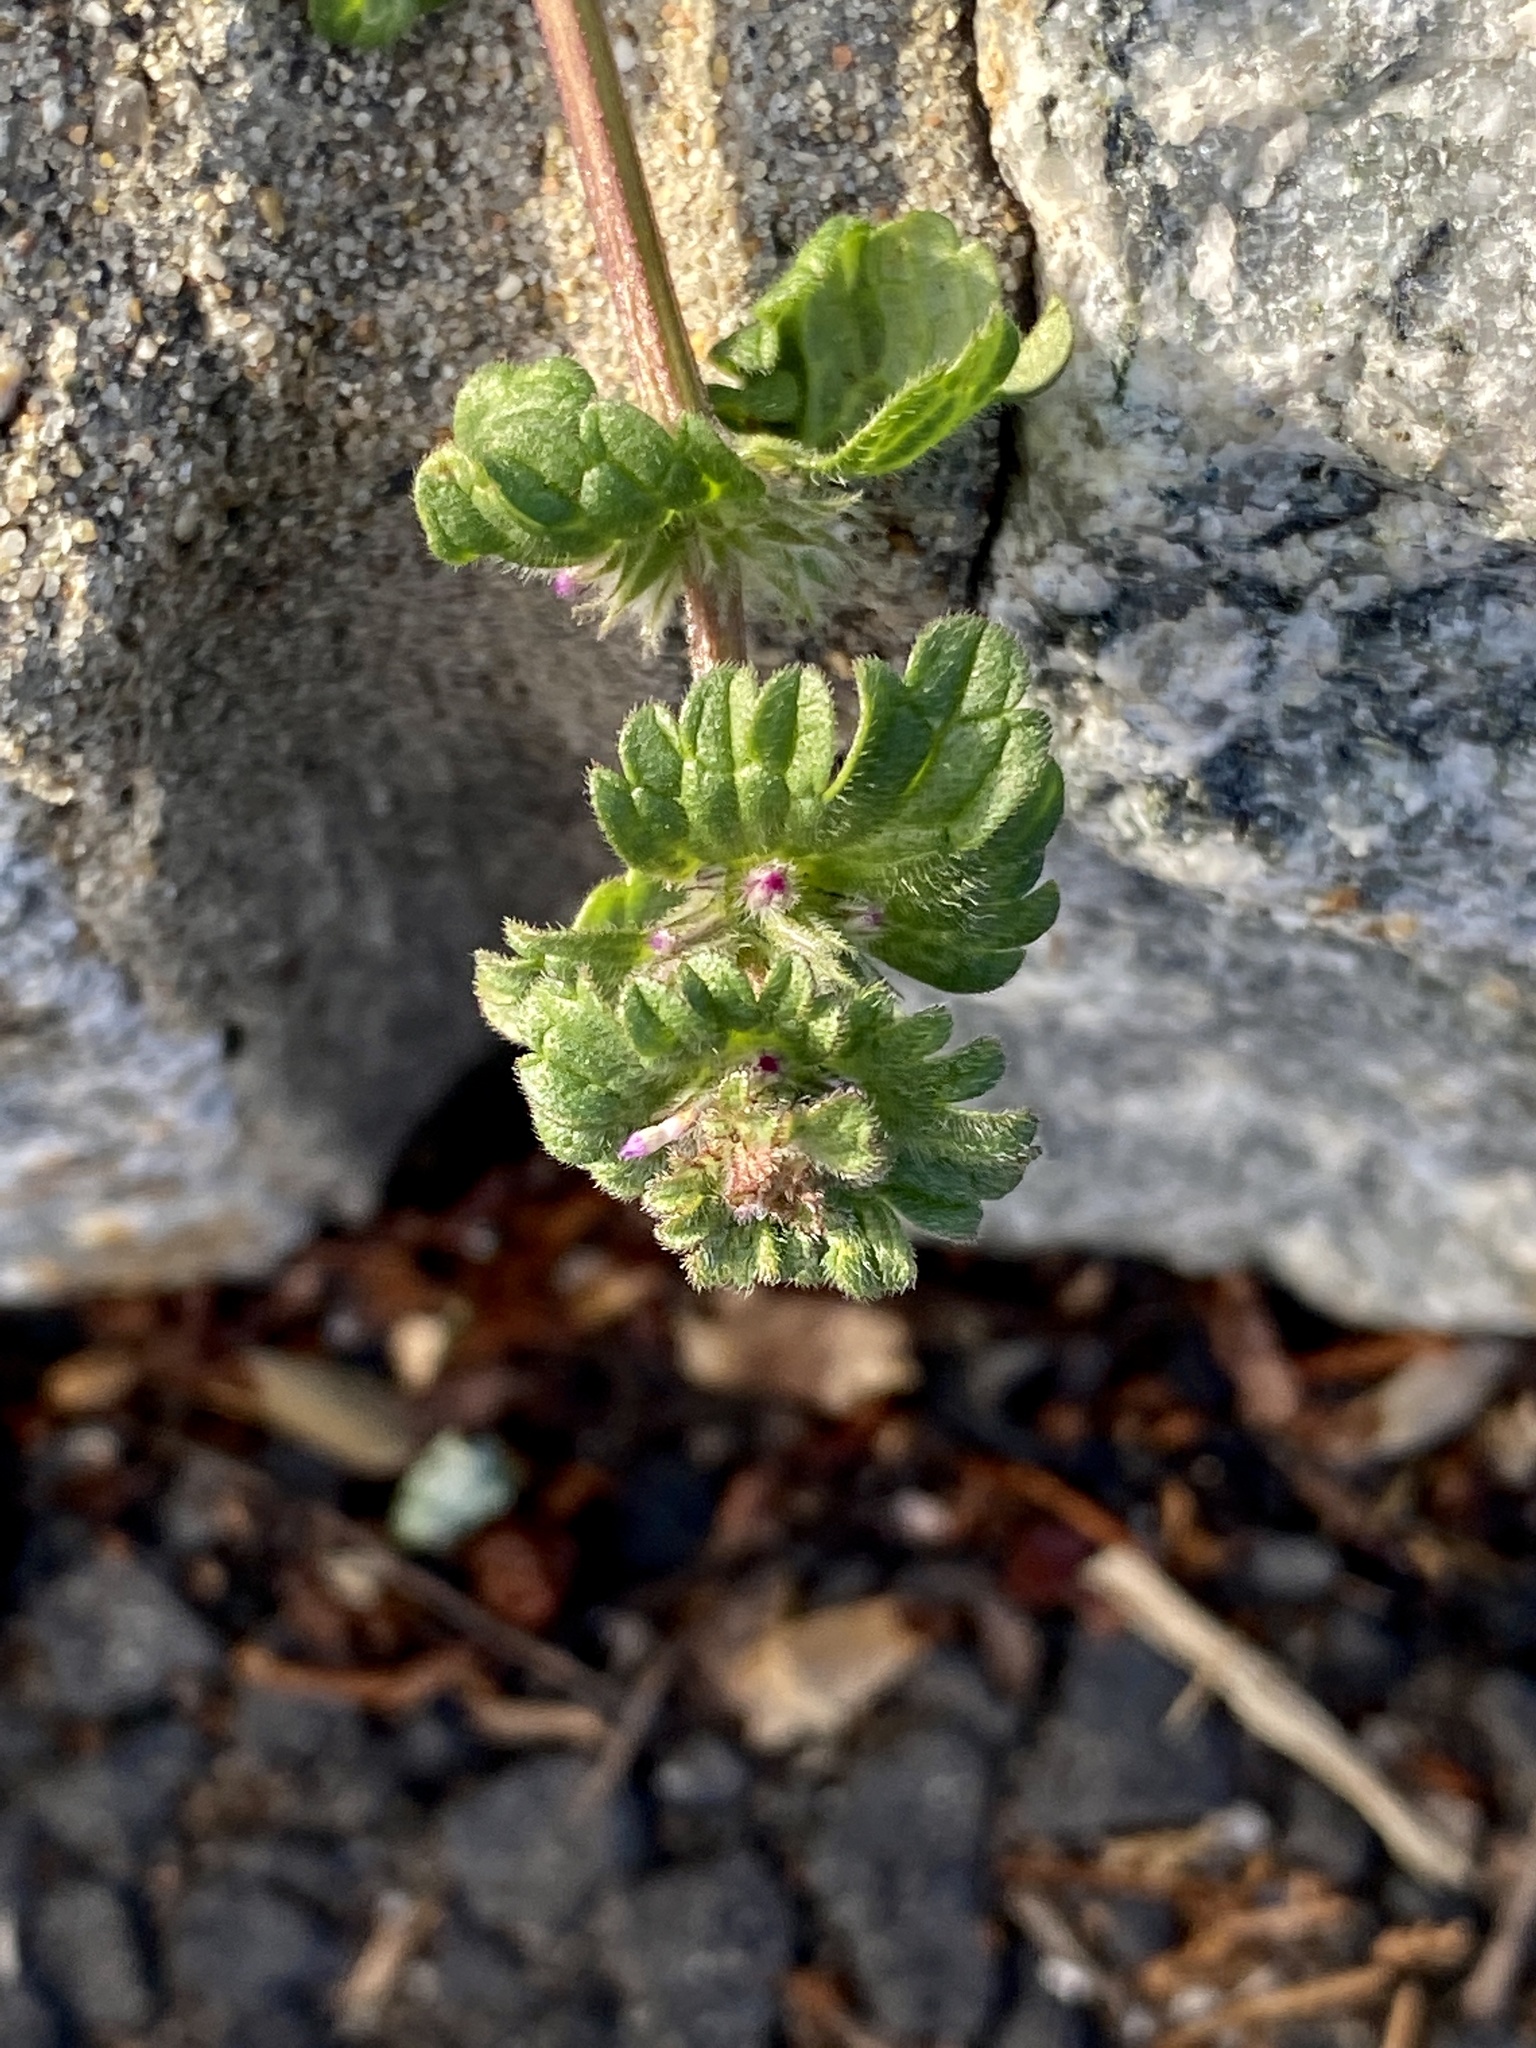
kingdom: Plantae
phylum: Tracheophyta
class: Magnoliopsida
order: Lamiales
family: Lamiaceae
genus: Lamium
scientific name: Lamium amplexicaule
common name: Henbit dead-nettle
